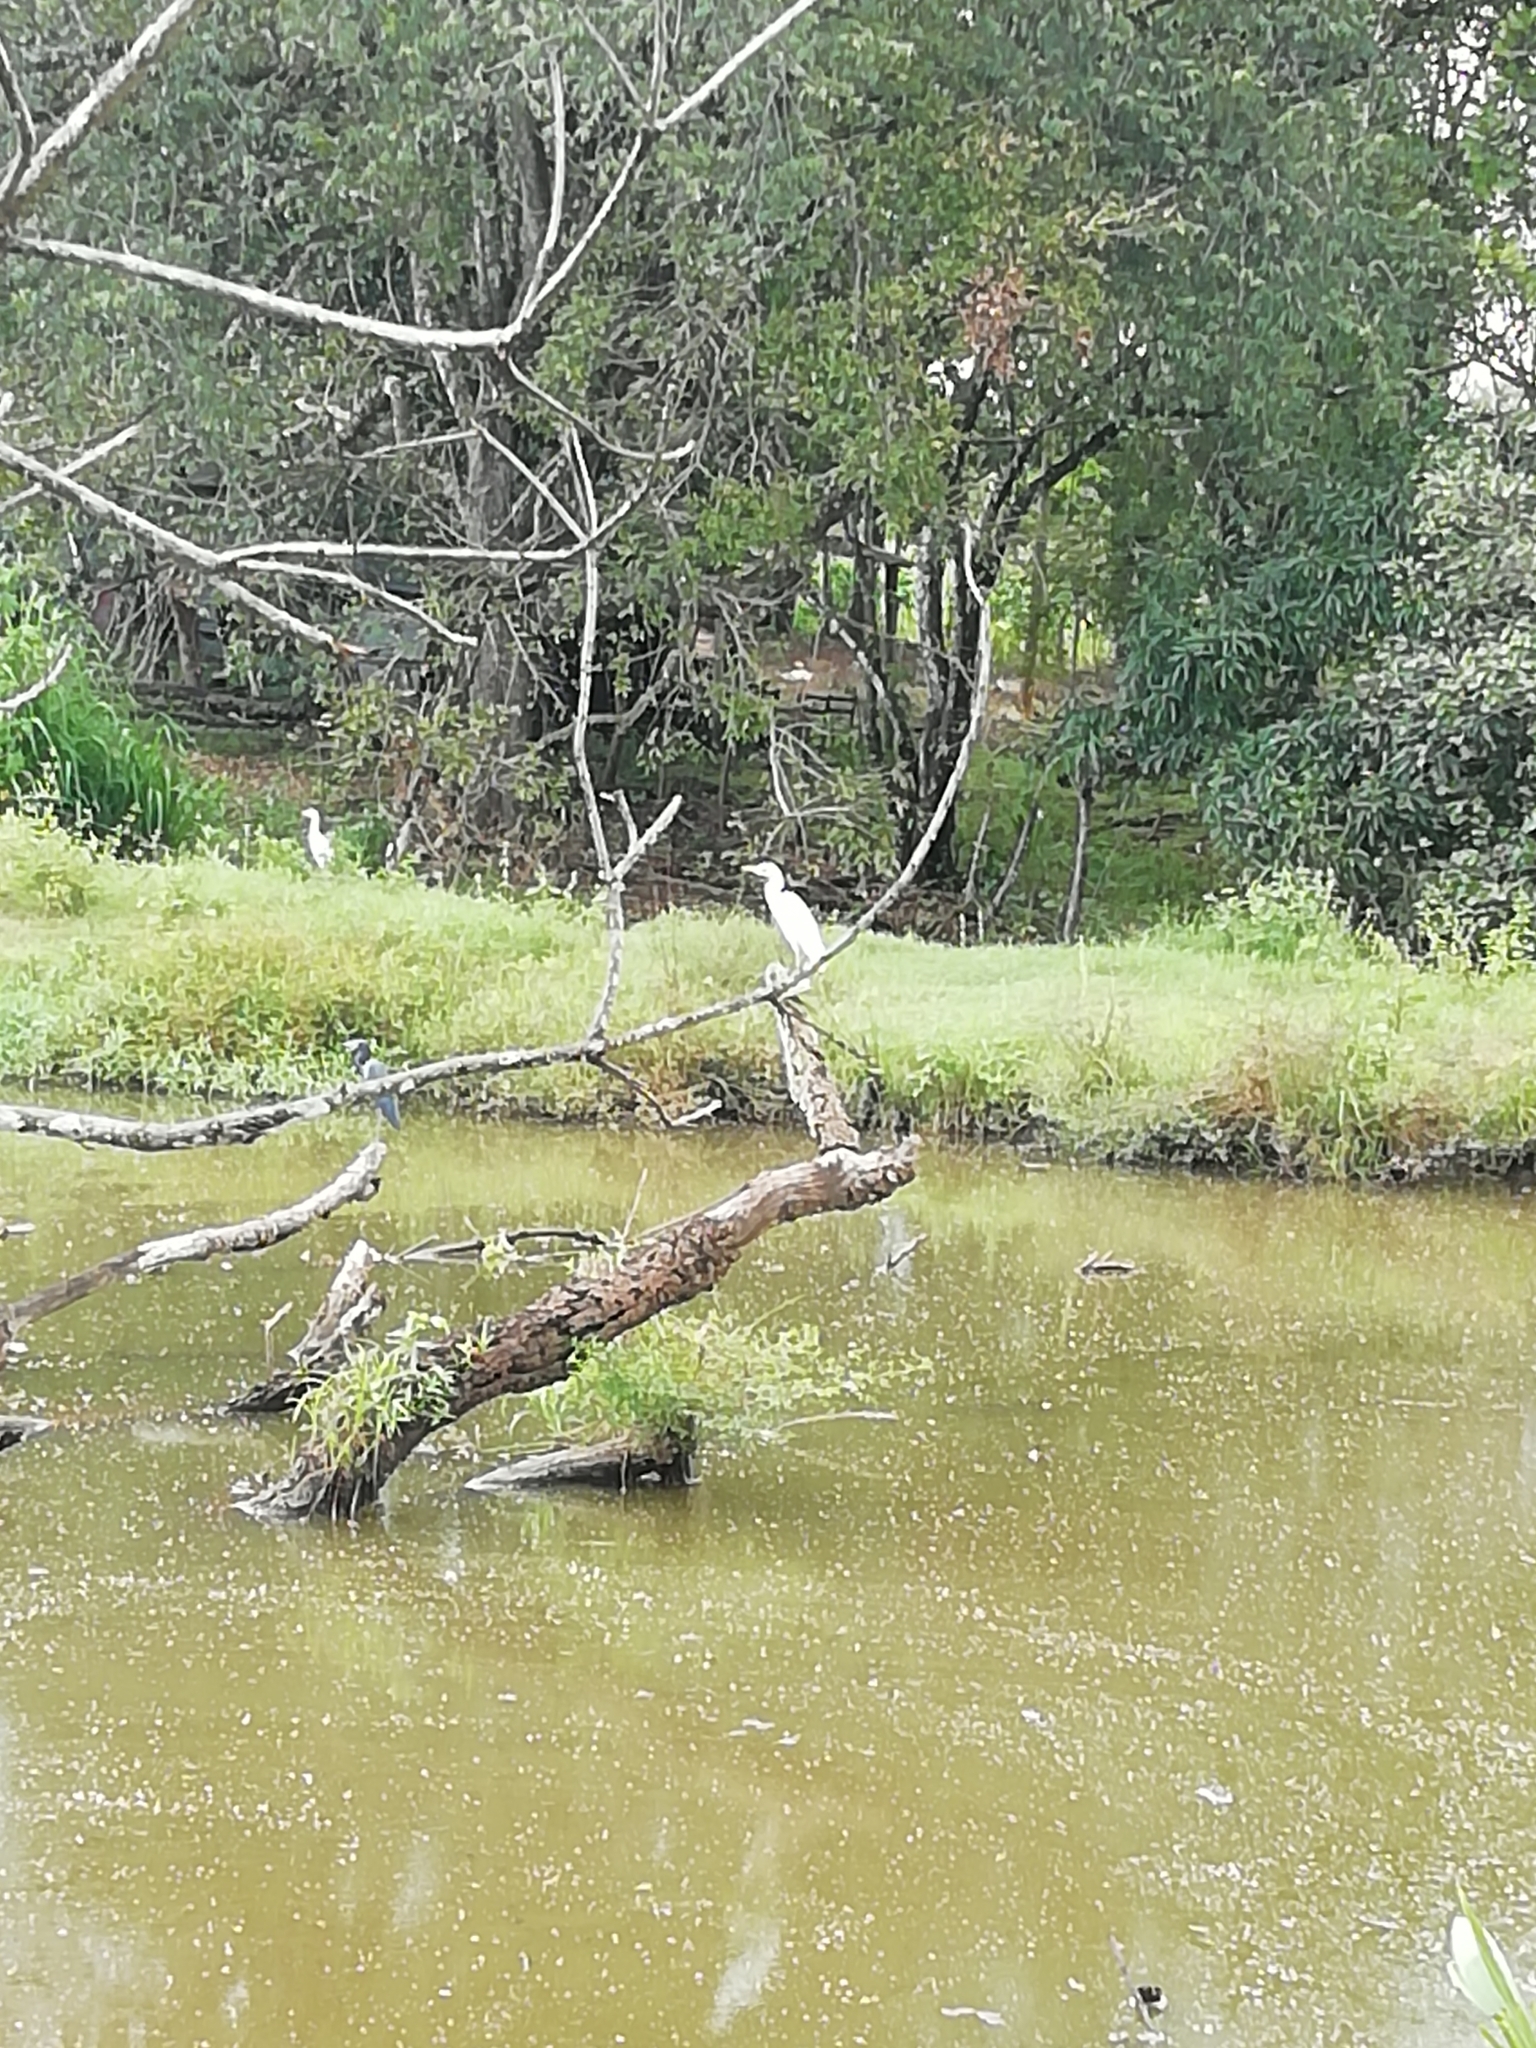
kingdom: Animalia
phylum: Chordata
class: Aves
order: Pelecaniformes
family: Ardeidae
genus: Bubulcus
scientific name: Bubulcus ibis
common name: Cattle egret
